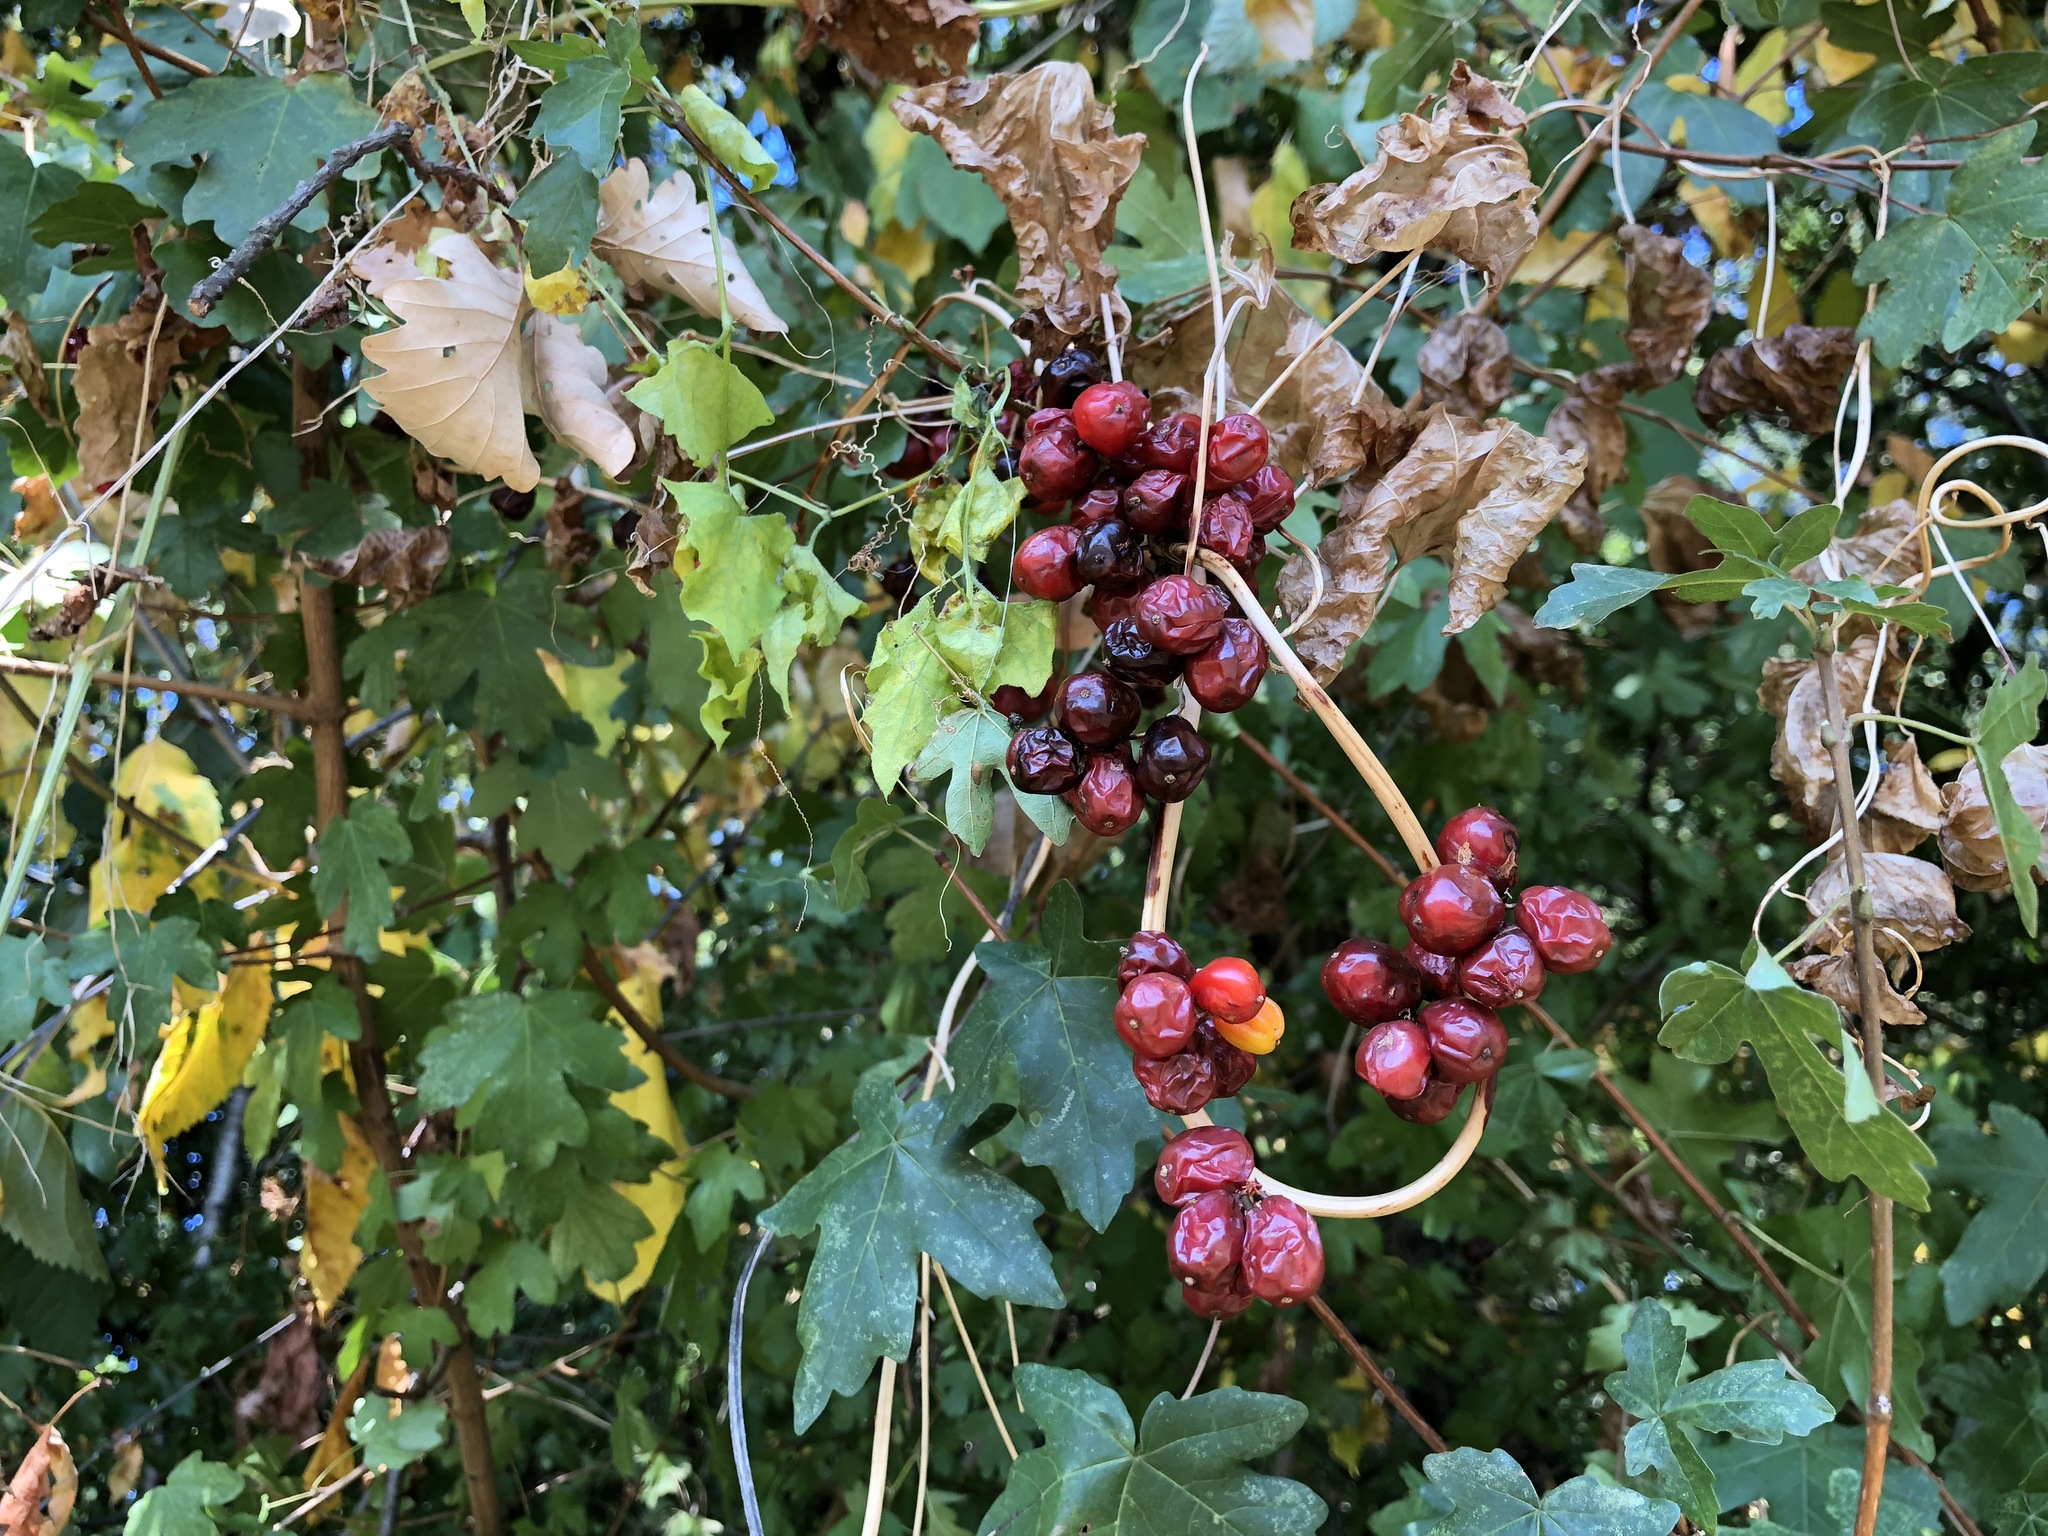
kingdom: Plantae
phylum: Tracheophyta
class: Liliopsida
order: Dioscoreales
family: Dioscoreaceae
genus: Dioscorea
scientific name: Dioscorea communis
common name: Black-bindweed
